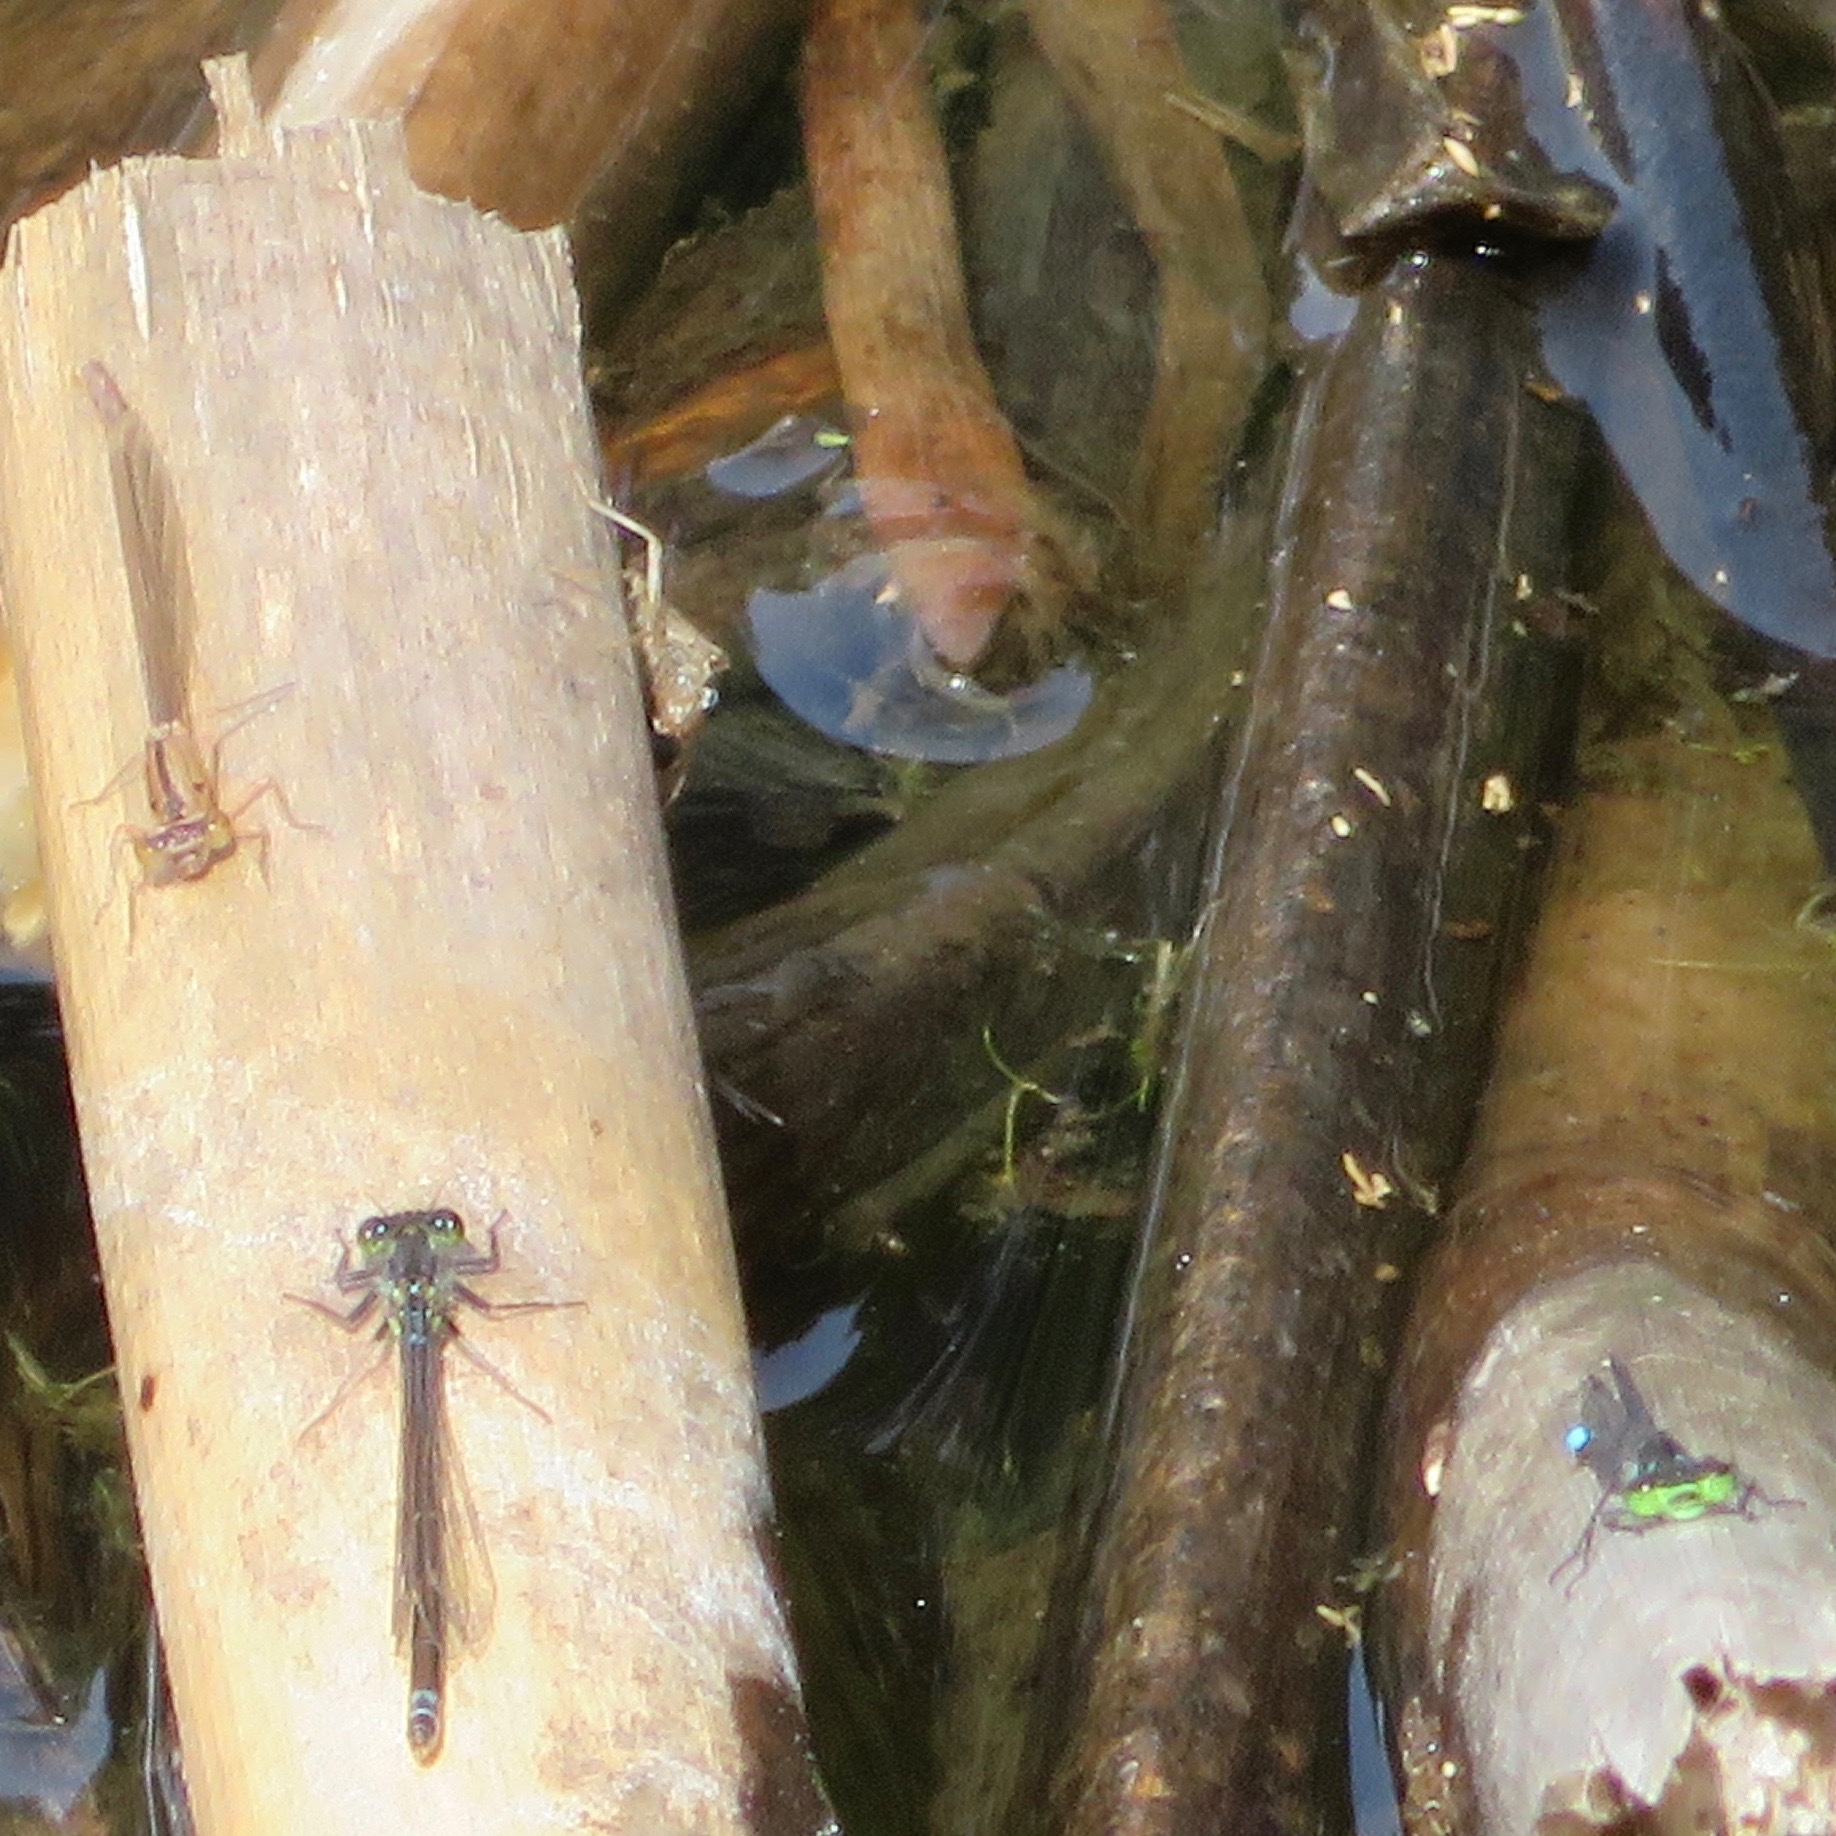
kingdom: Animalia
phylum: Arthropoda
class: Insecta
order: Odonata
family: Coenagrionidae
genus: Ischnura
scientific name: Ischnura cervula
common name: Pacific forktail
